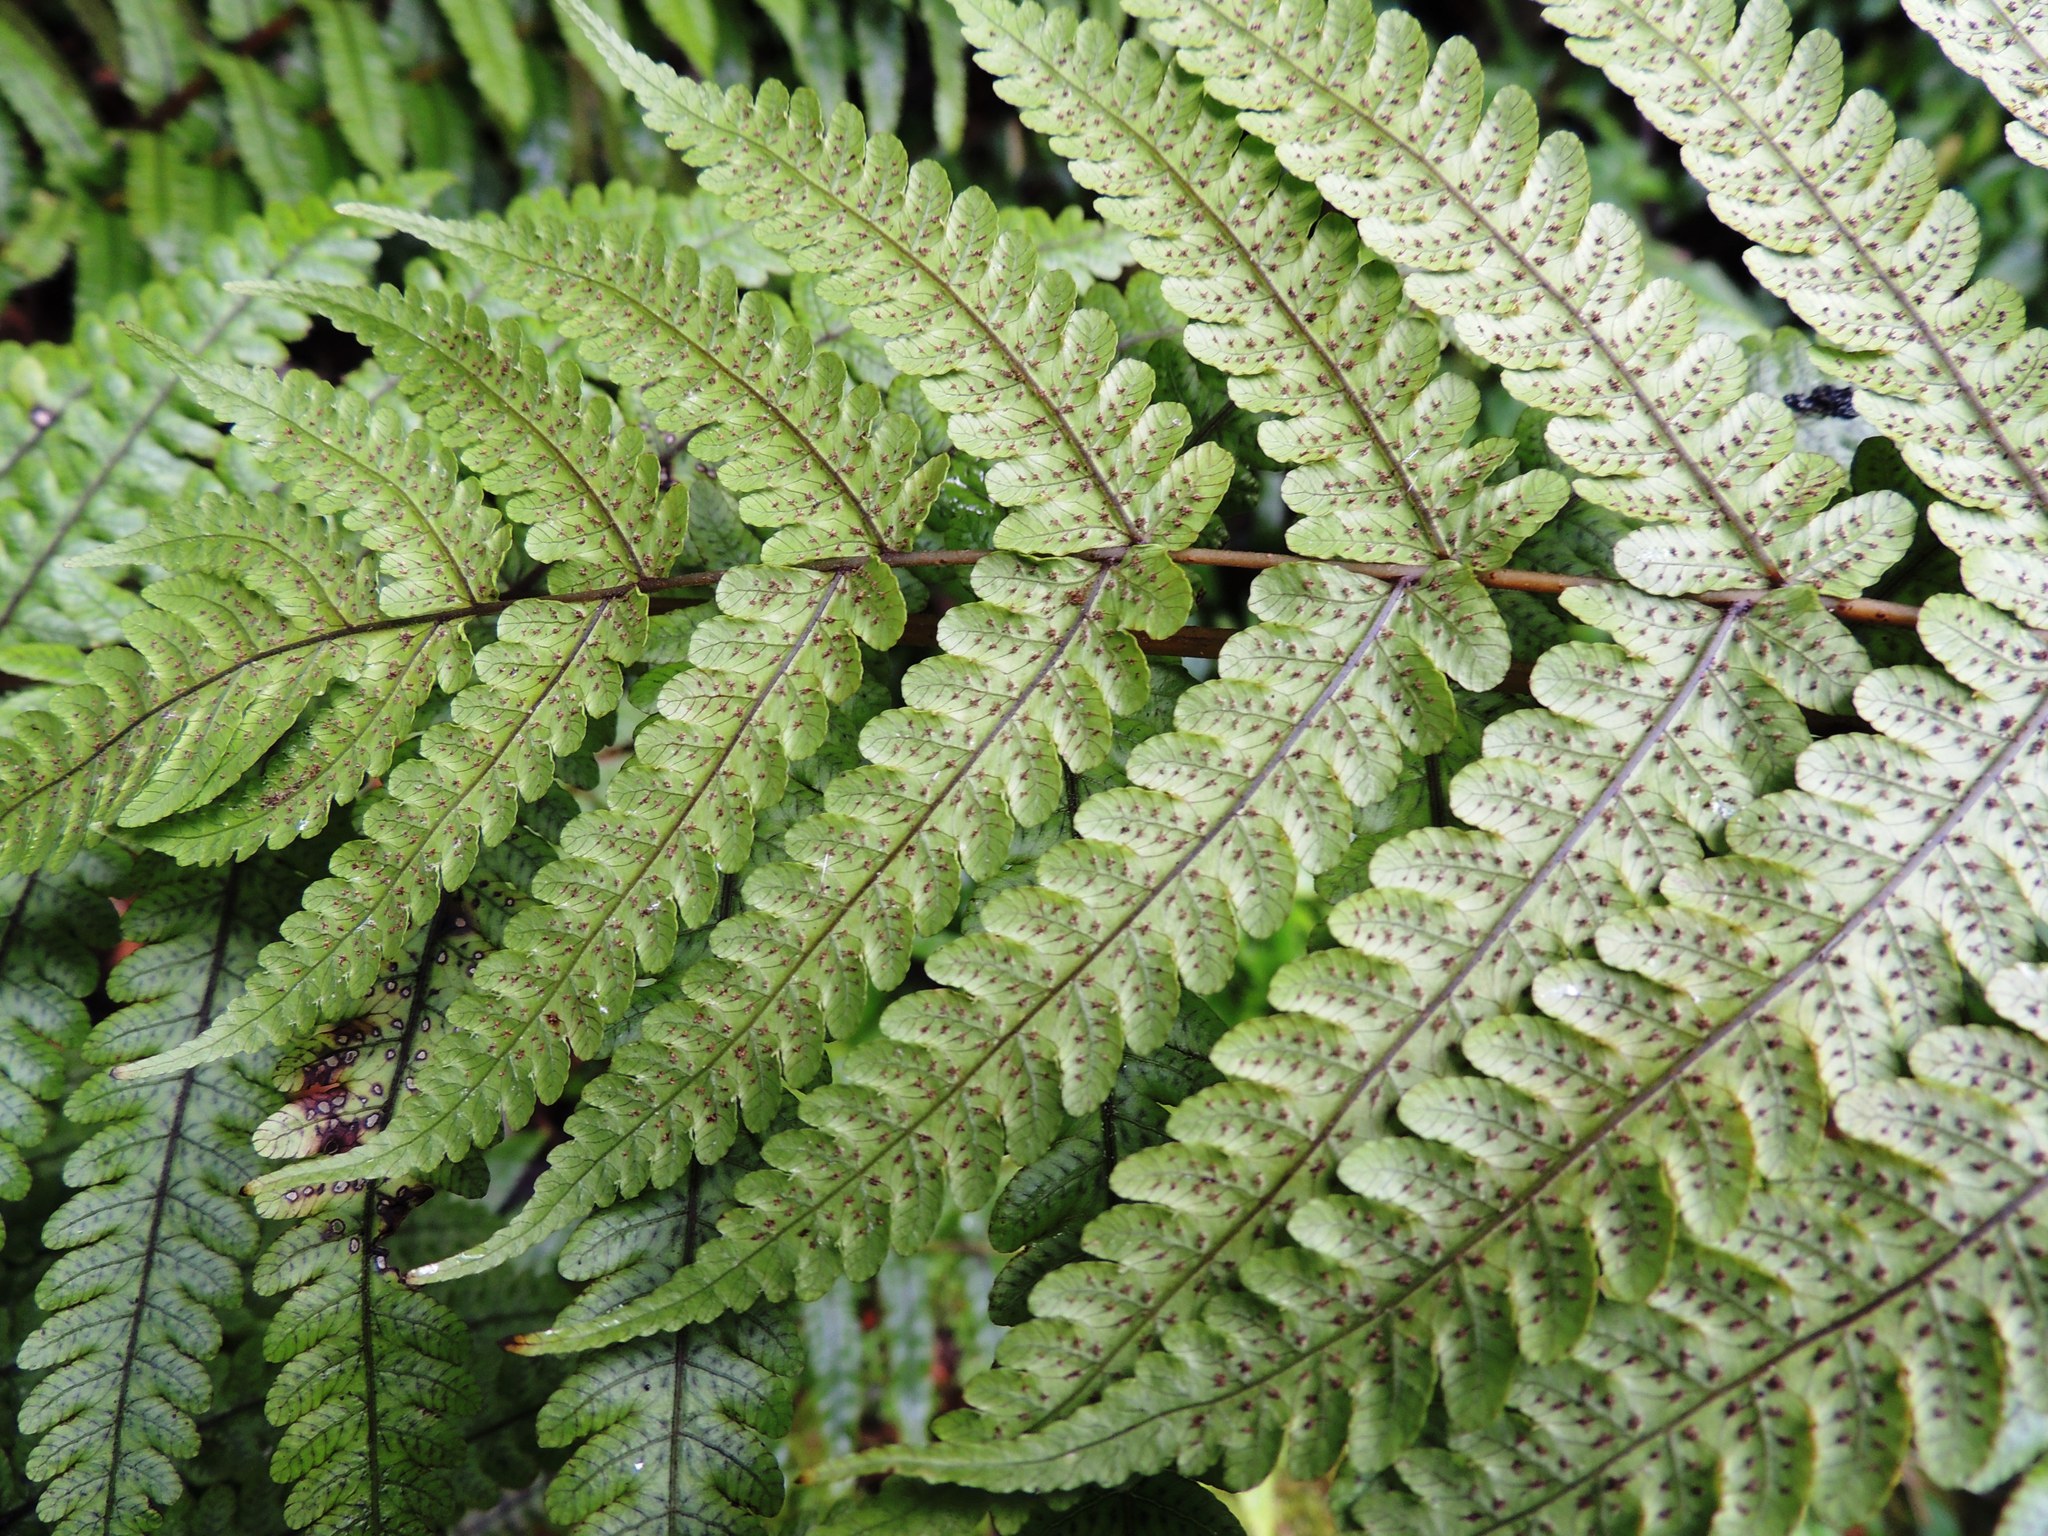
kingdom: Plantae
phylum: Tracheophyta
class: Polypodiopsida
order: Polypodiales
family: Thelypteridaceae
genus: Pakau
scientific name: Pakau pennigera
